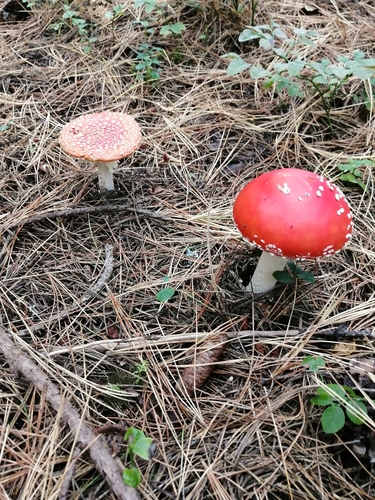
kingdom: Fungi
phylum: Basidiomycota
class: Agaricomycetes
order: Agaricales
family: Amanitaceae
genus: Amanita
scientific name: Amanita muscaria
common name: Fly agaric
